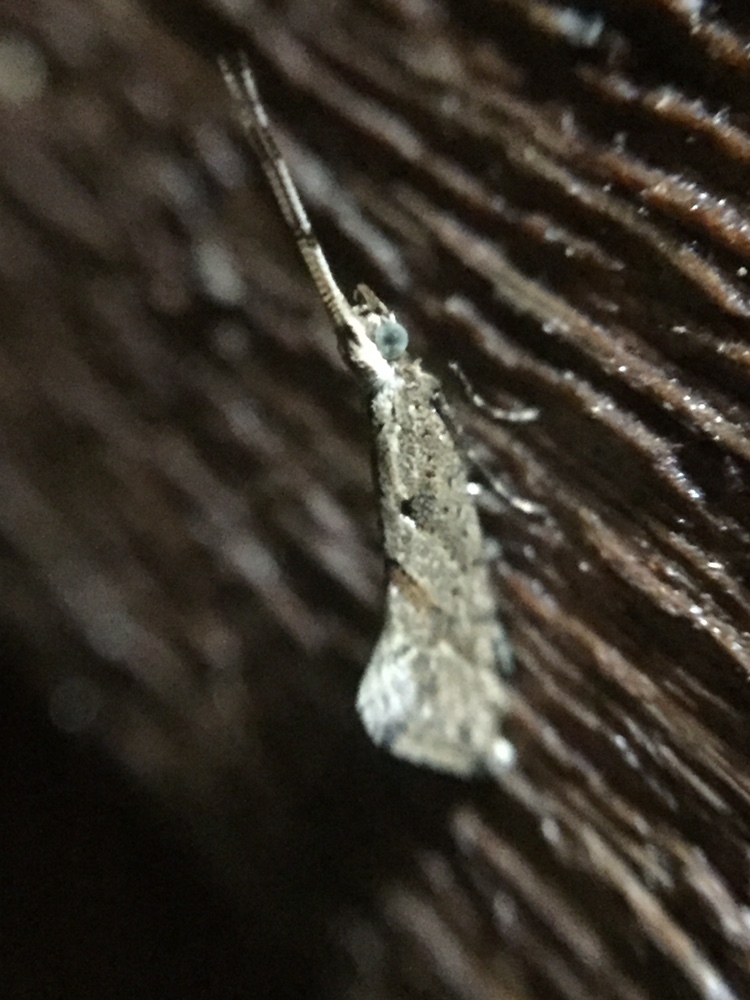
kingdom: Animalia
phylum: Arthropoda
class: Insecta
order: Lepidoptera
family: Plutellidae
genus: Leuroperna
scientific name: Leuroperna sera
